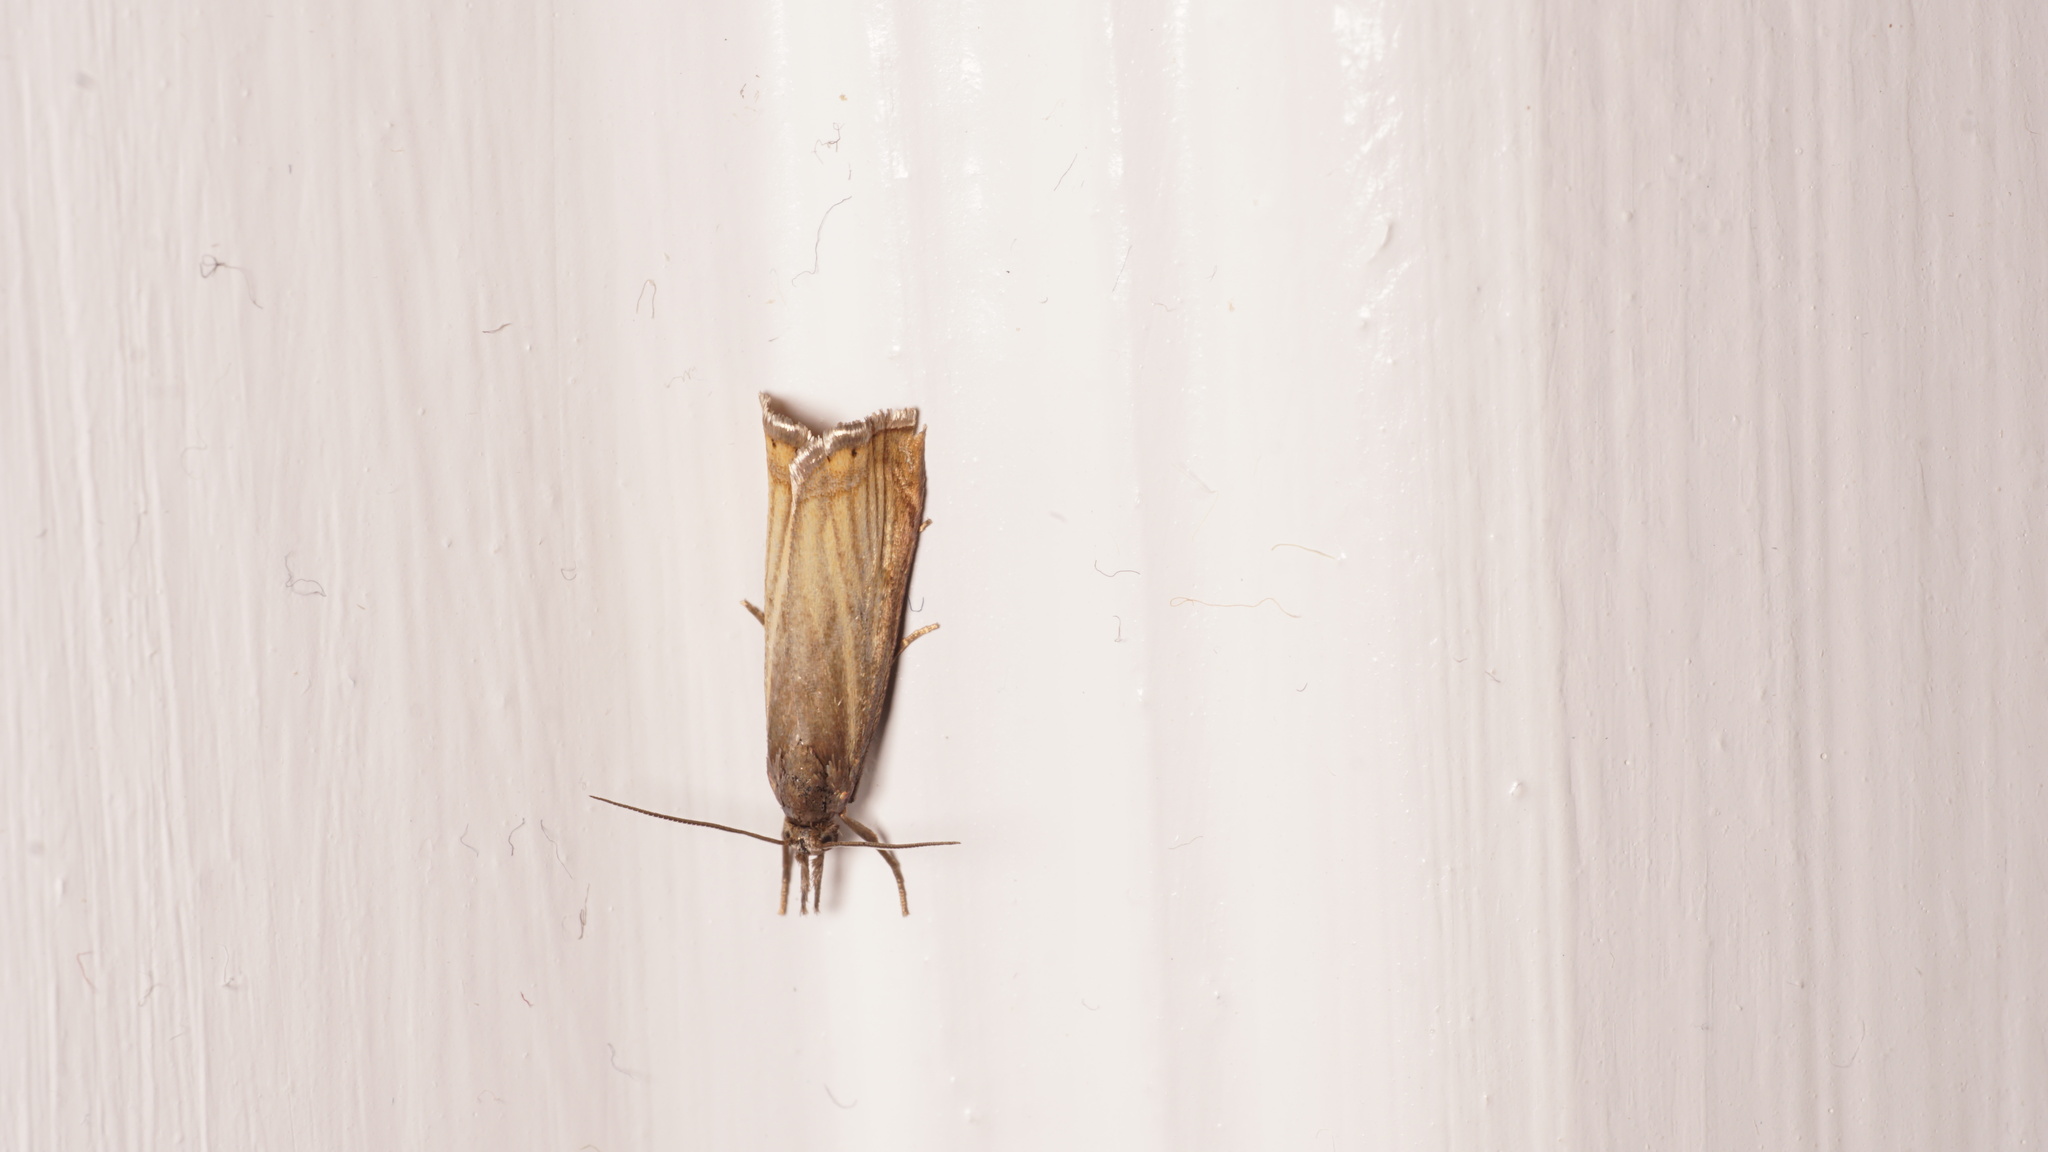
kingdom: Animalia
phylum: Arthropoda
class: Insecta
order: Lepidoptera
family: Crambidae
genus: Chrysoteuchia
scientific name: Chrysoteuchia culmella
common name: Garden grass-veneer
